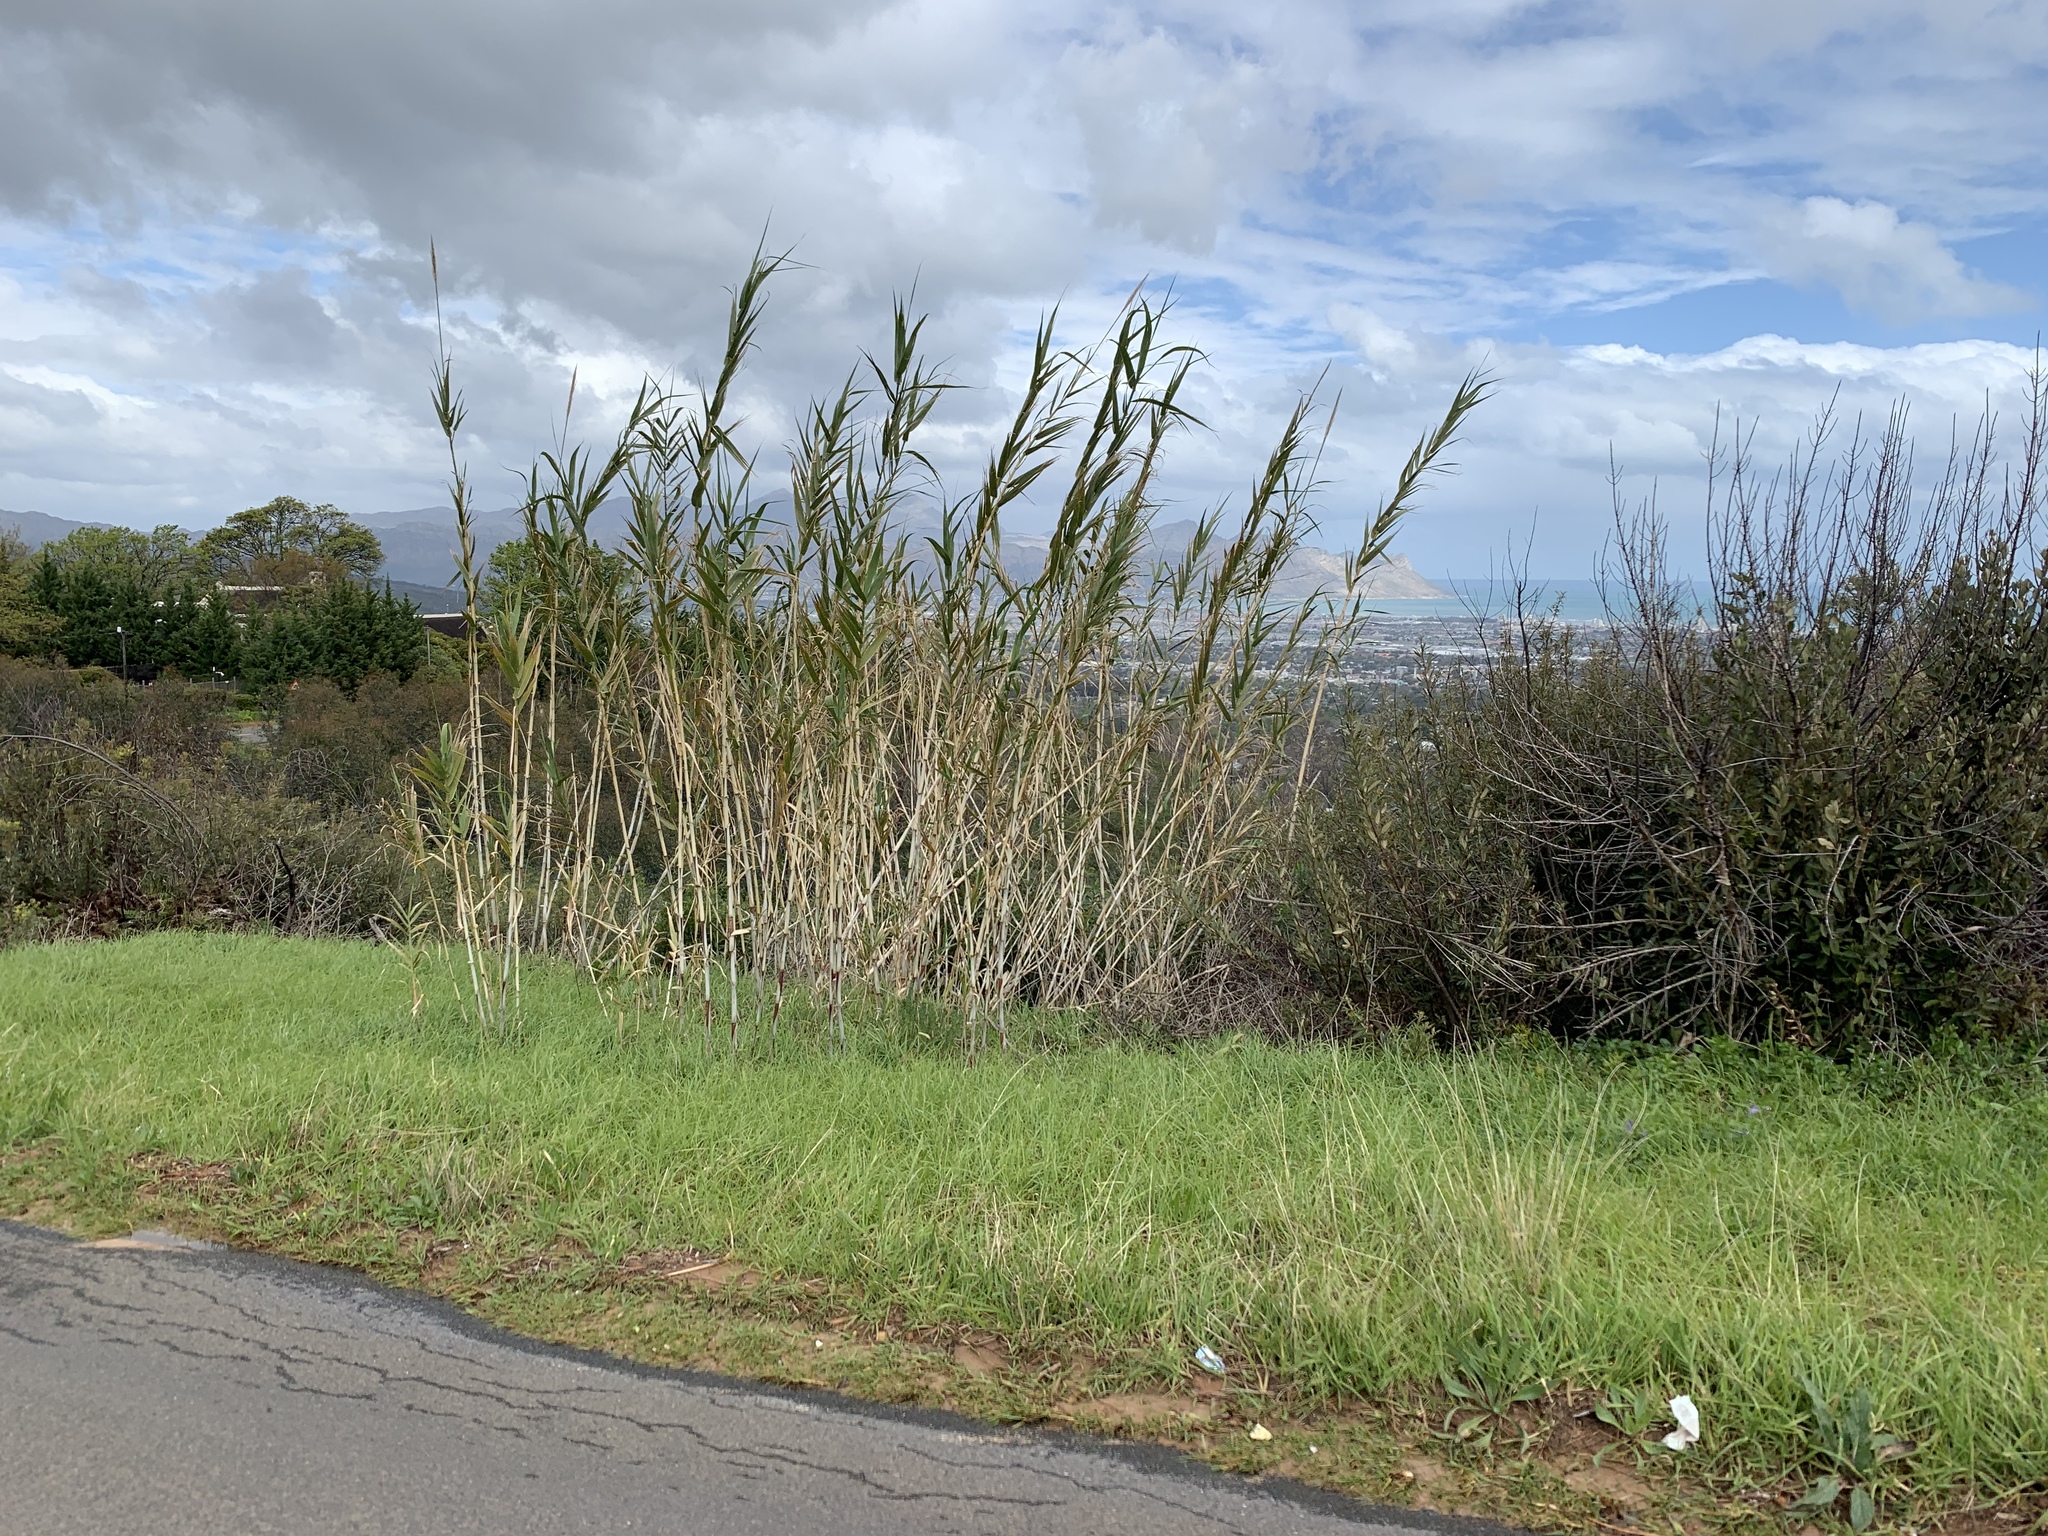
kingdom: Plantae
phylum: Tracheophyta
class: Liliopsida
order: Poales
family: Poaceae
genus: Arundo
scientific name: Arundo donax
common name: Giant reed
